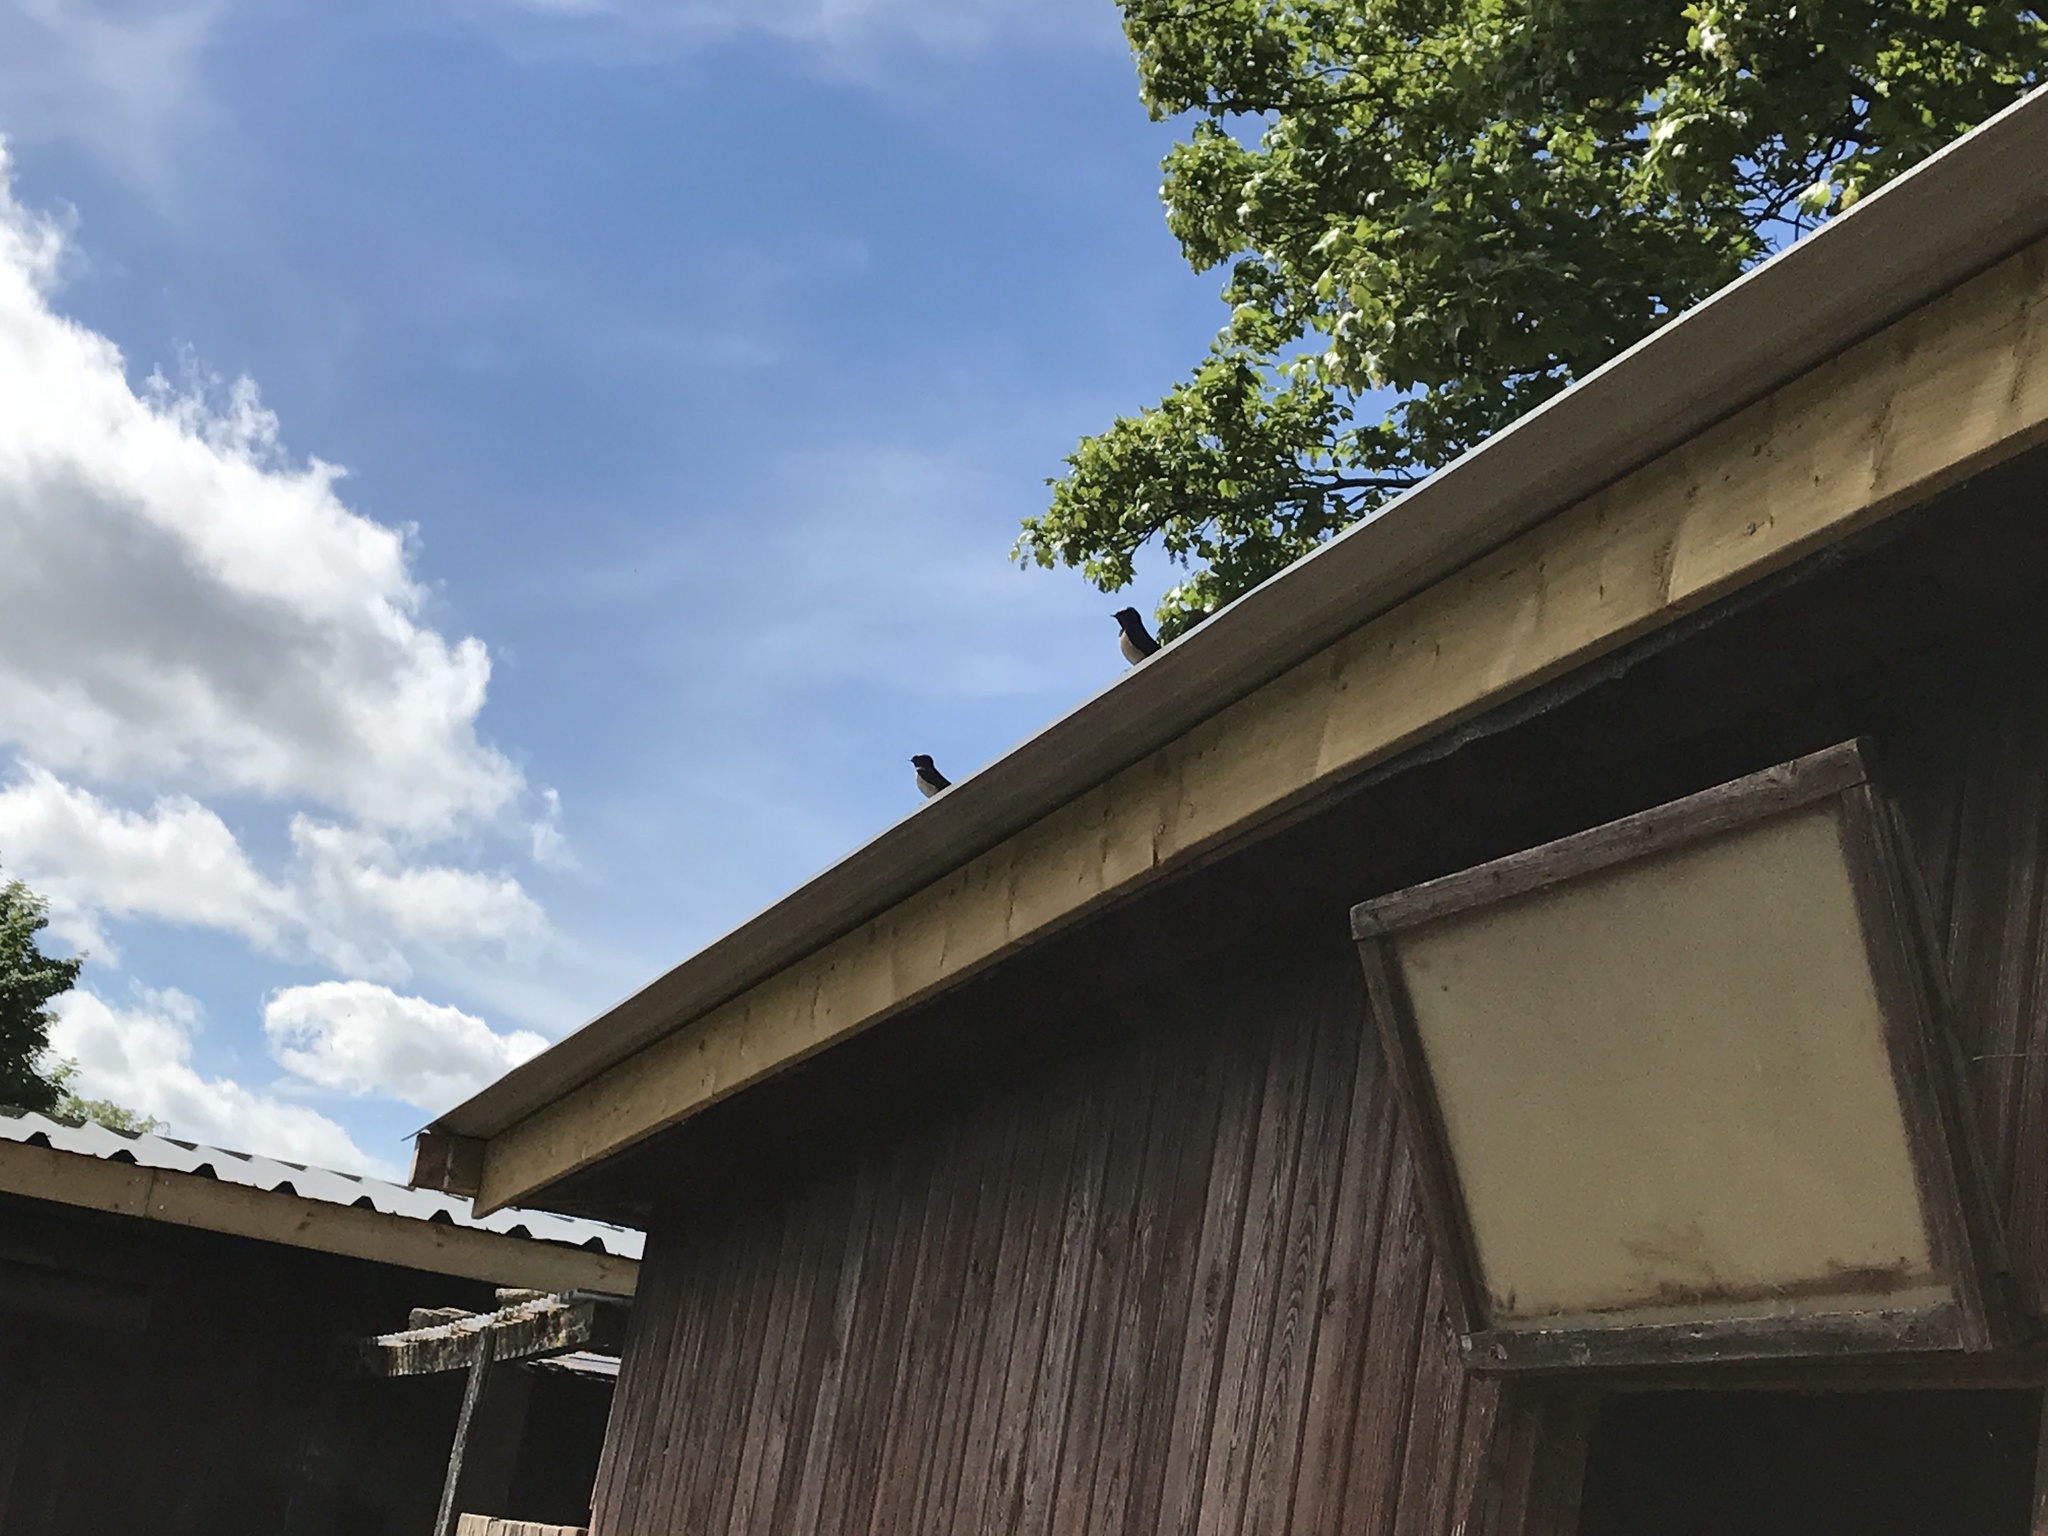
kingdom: Animalia
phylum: Chordata
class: Aves
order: Passeriformes
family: Hirundinidae
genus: Hirundo
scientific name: Hirundo rustica
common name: Barn swallow
